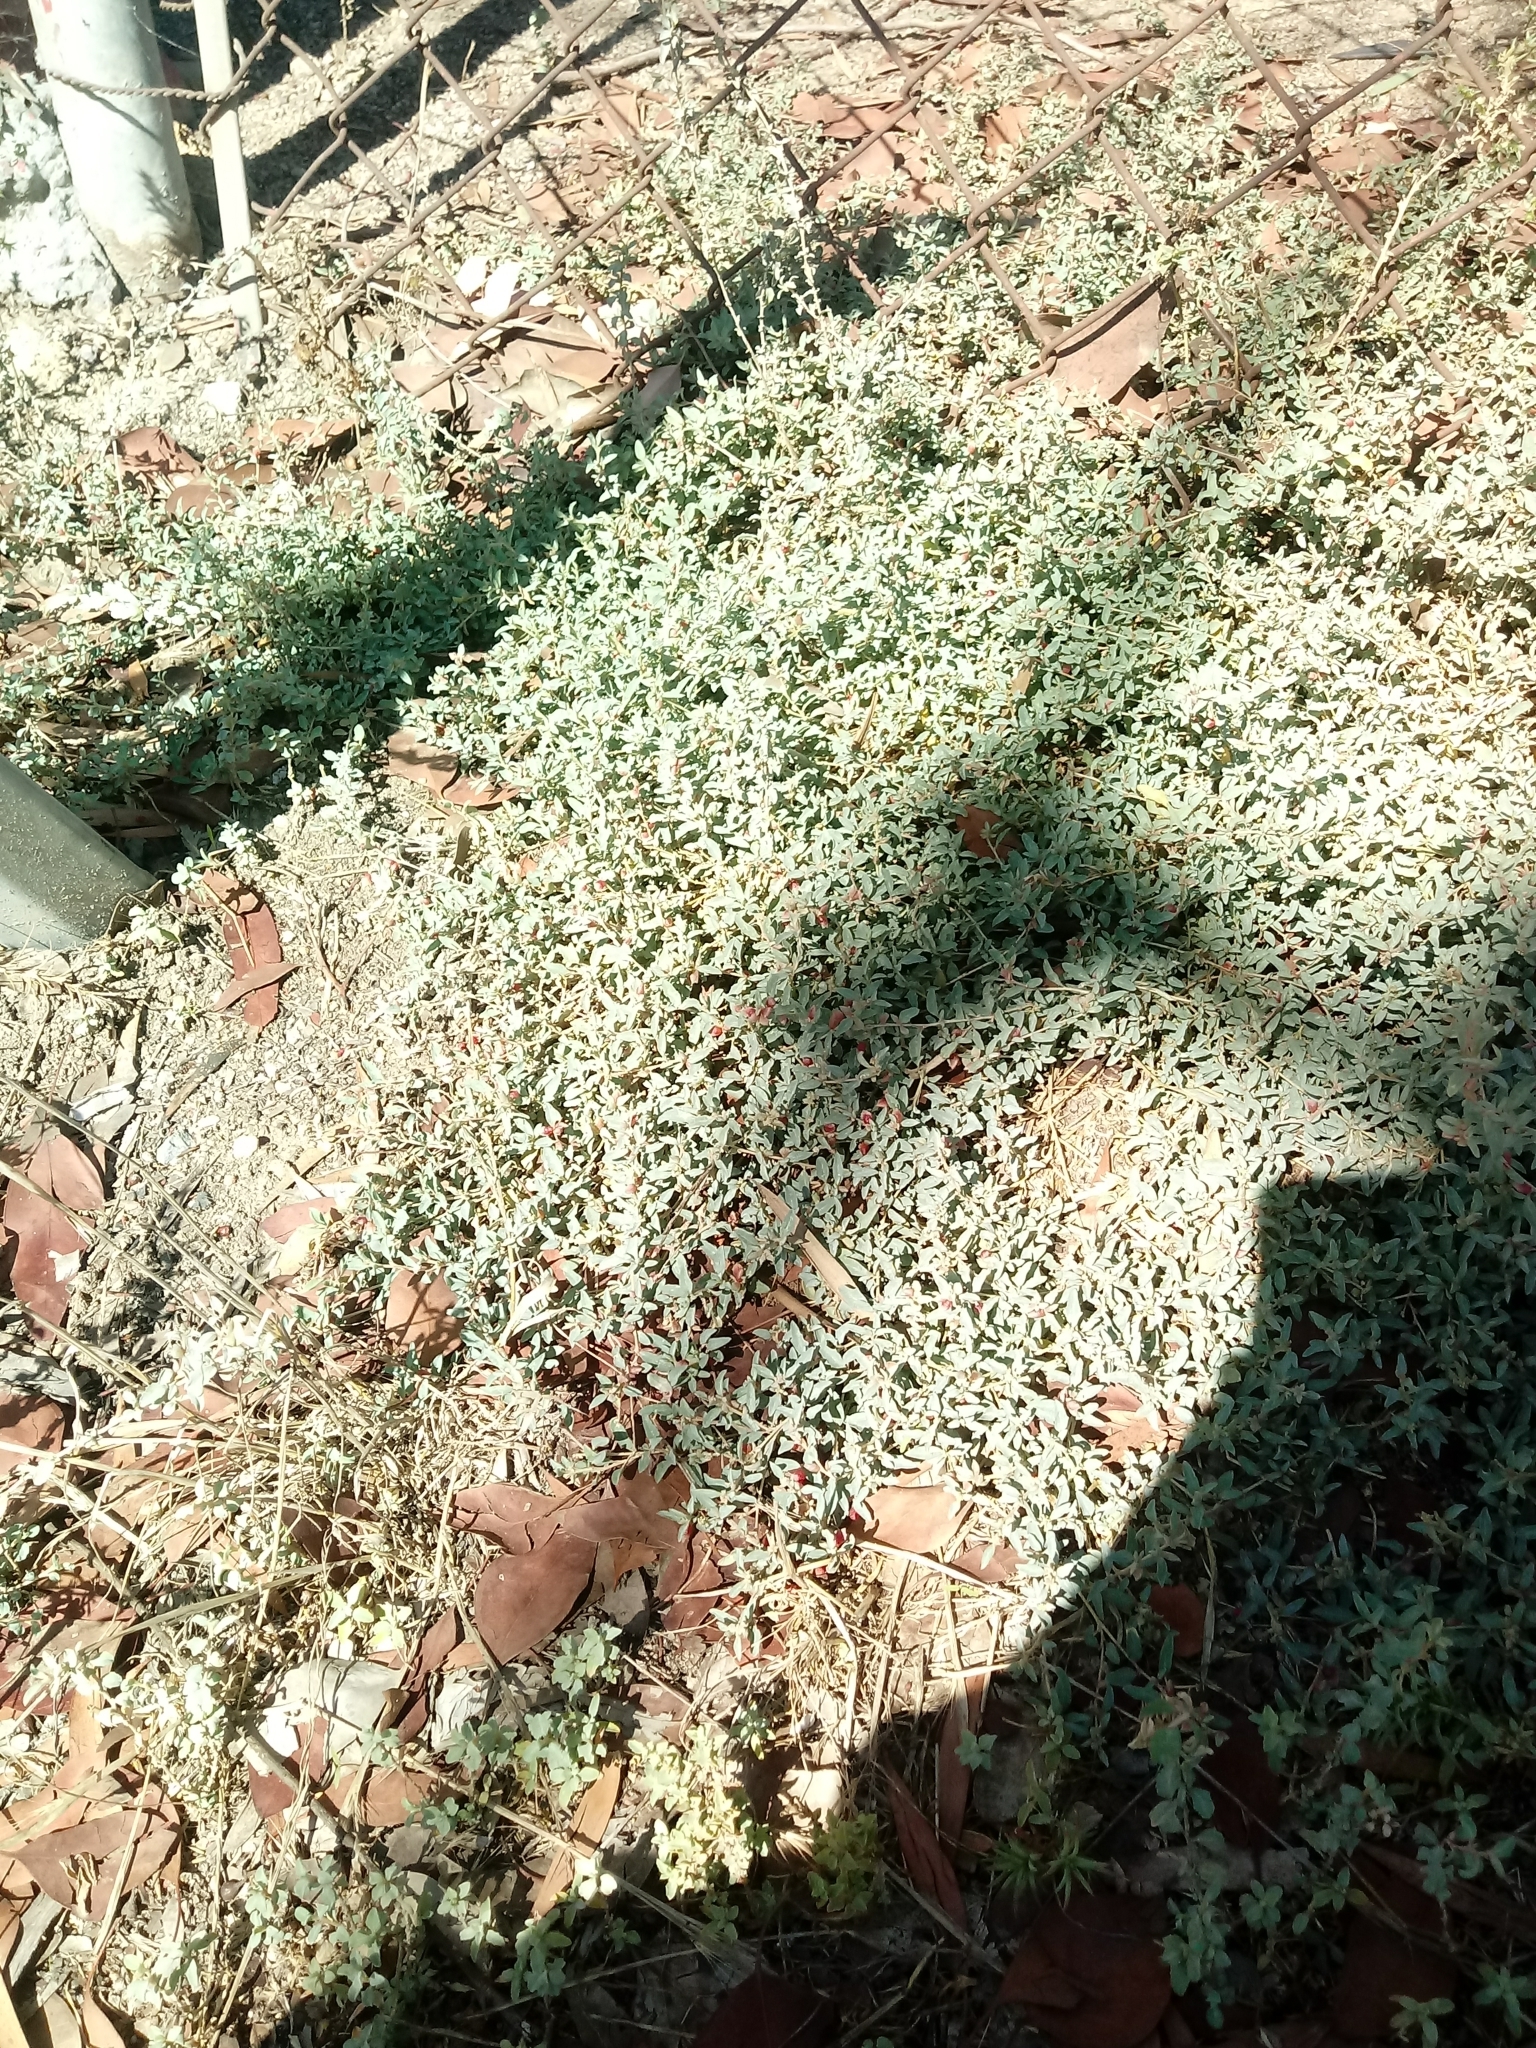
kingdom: Plantae
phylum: Tracheophyta
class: Magnoliopsida
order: Caryophyllales
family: Amaranthaceae
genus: Atriplex
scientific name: Atriplex semibaccata
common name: Australian saltbush
